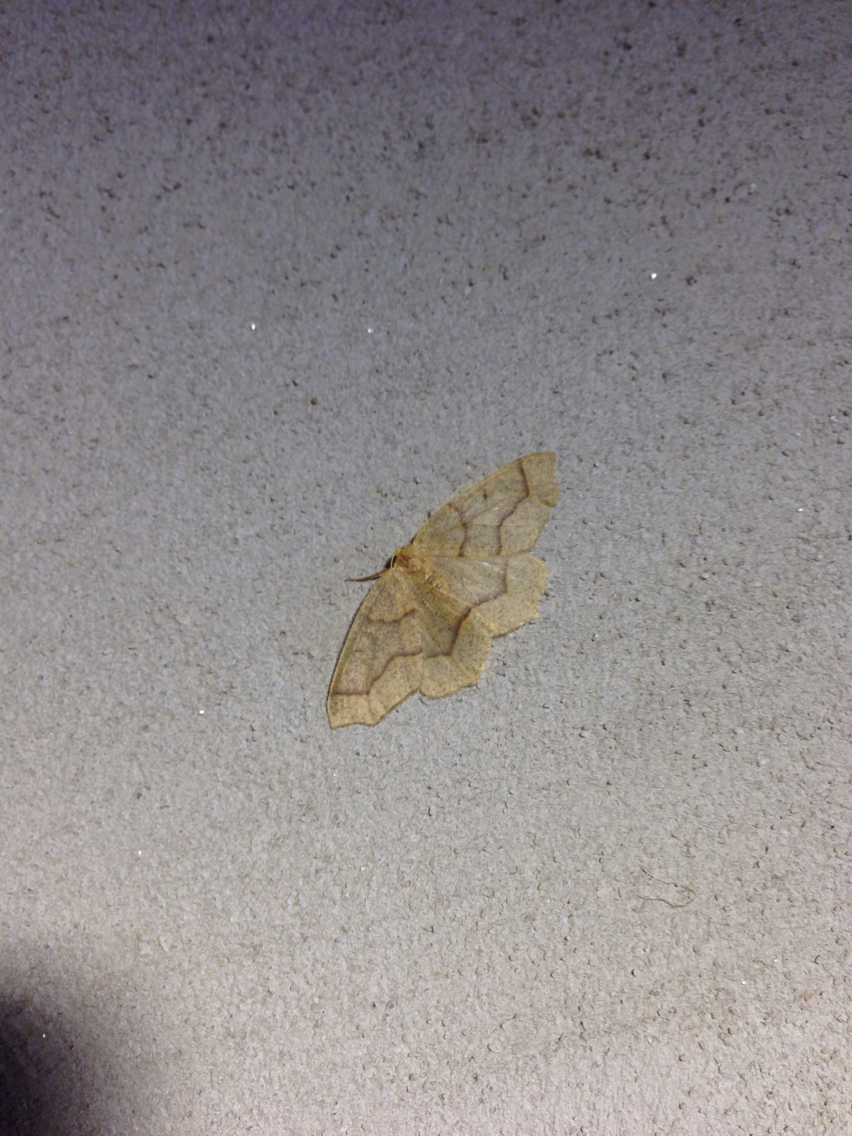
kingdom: Animalia
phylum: Arthropoda
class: Insecta
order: Lepidoptera
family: Geometridae
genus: Lambdina
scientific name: Lambdina fiscellaria
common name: Hemlock looper
